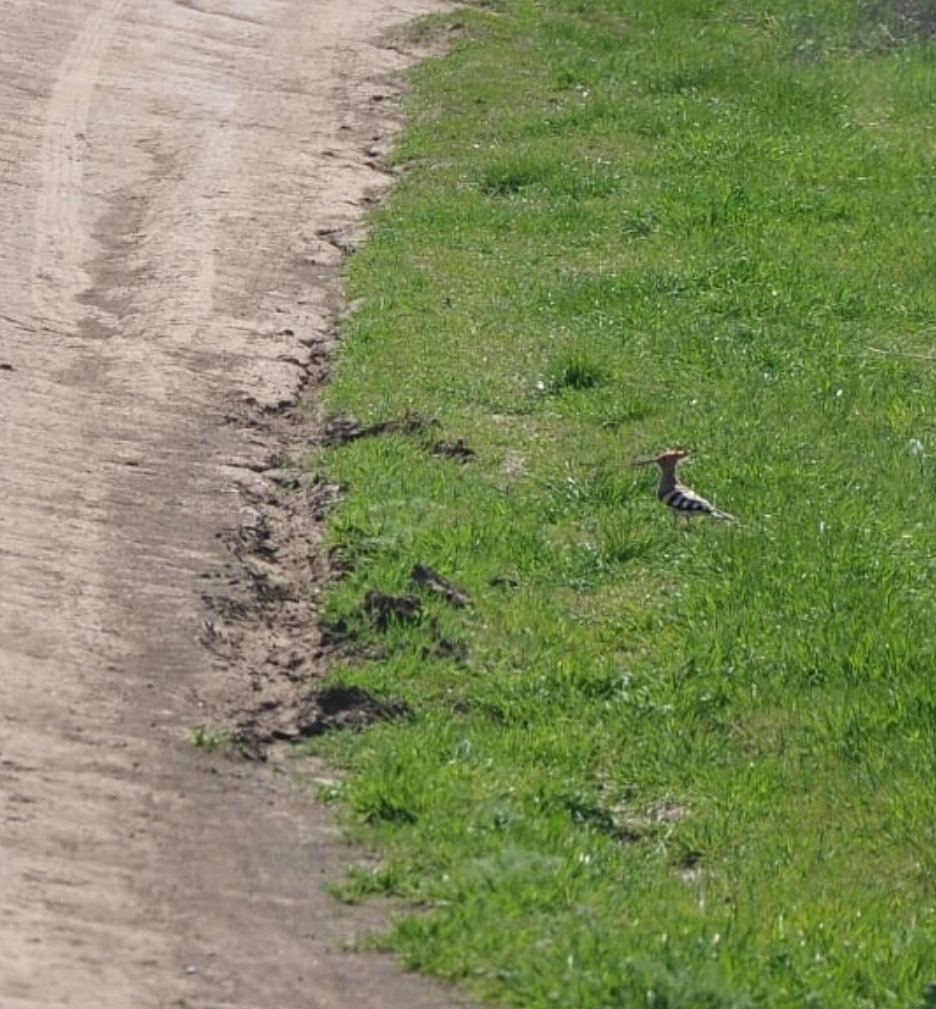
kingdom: Animalia
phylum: Chordata
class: Aves
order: Bucerotiformes
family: Upupidae
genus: Upupa
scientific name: Upupa epops
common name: Eurasian hoopoe
